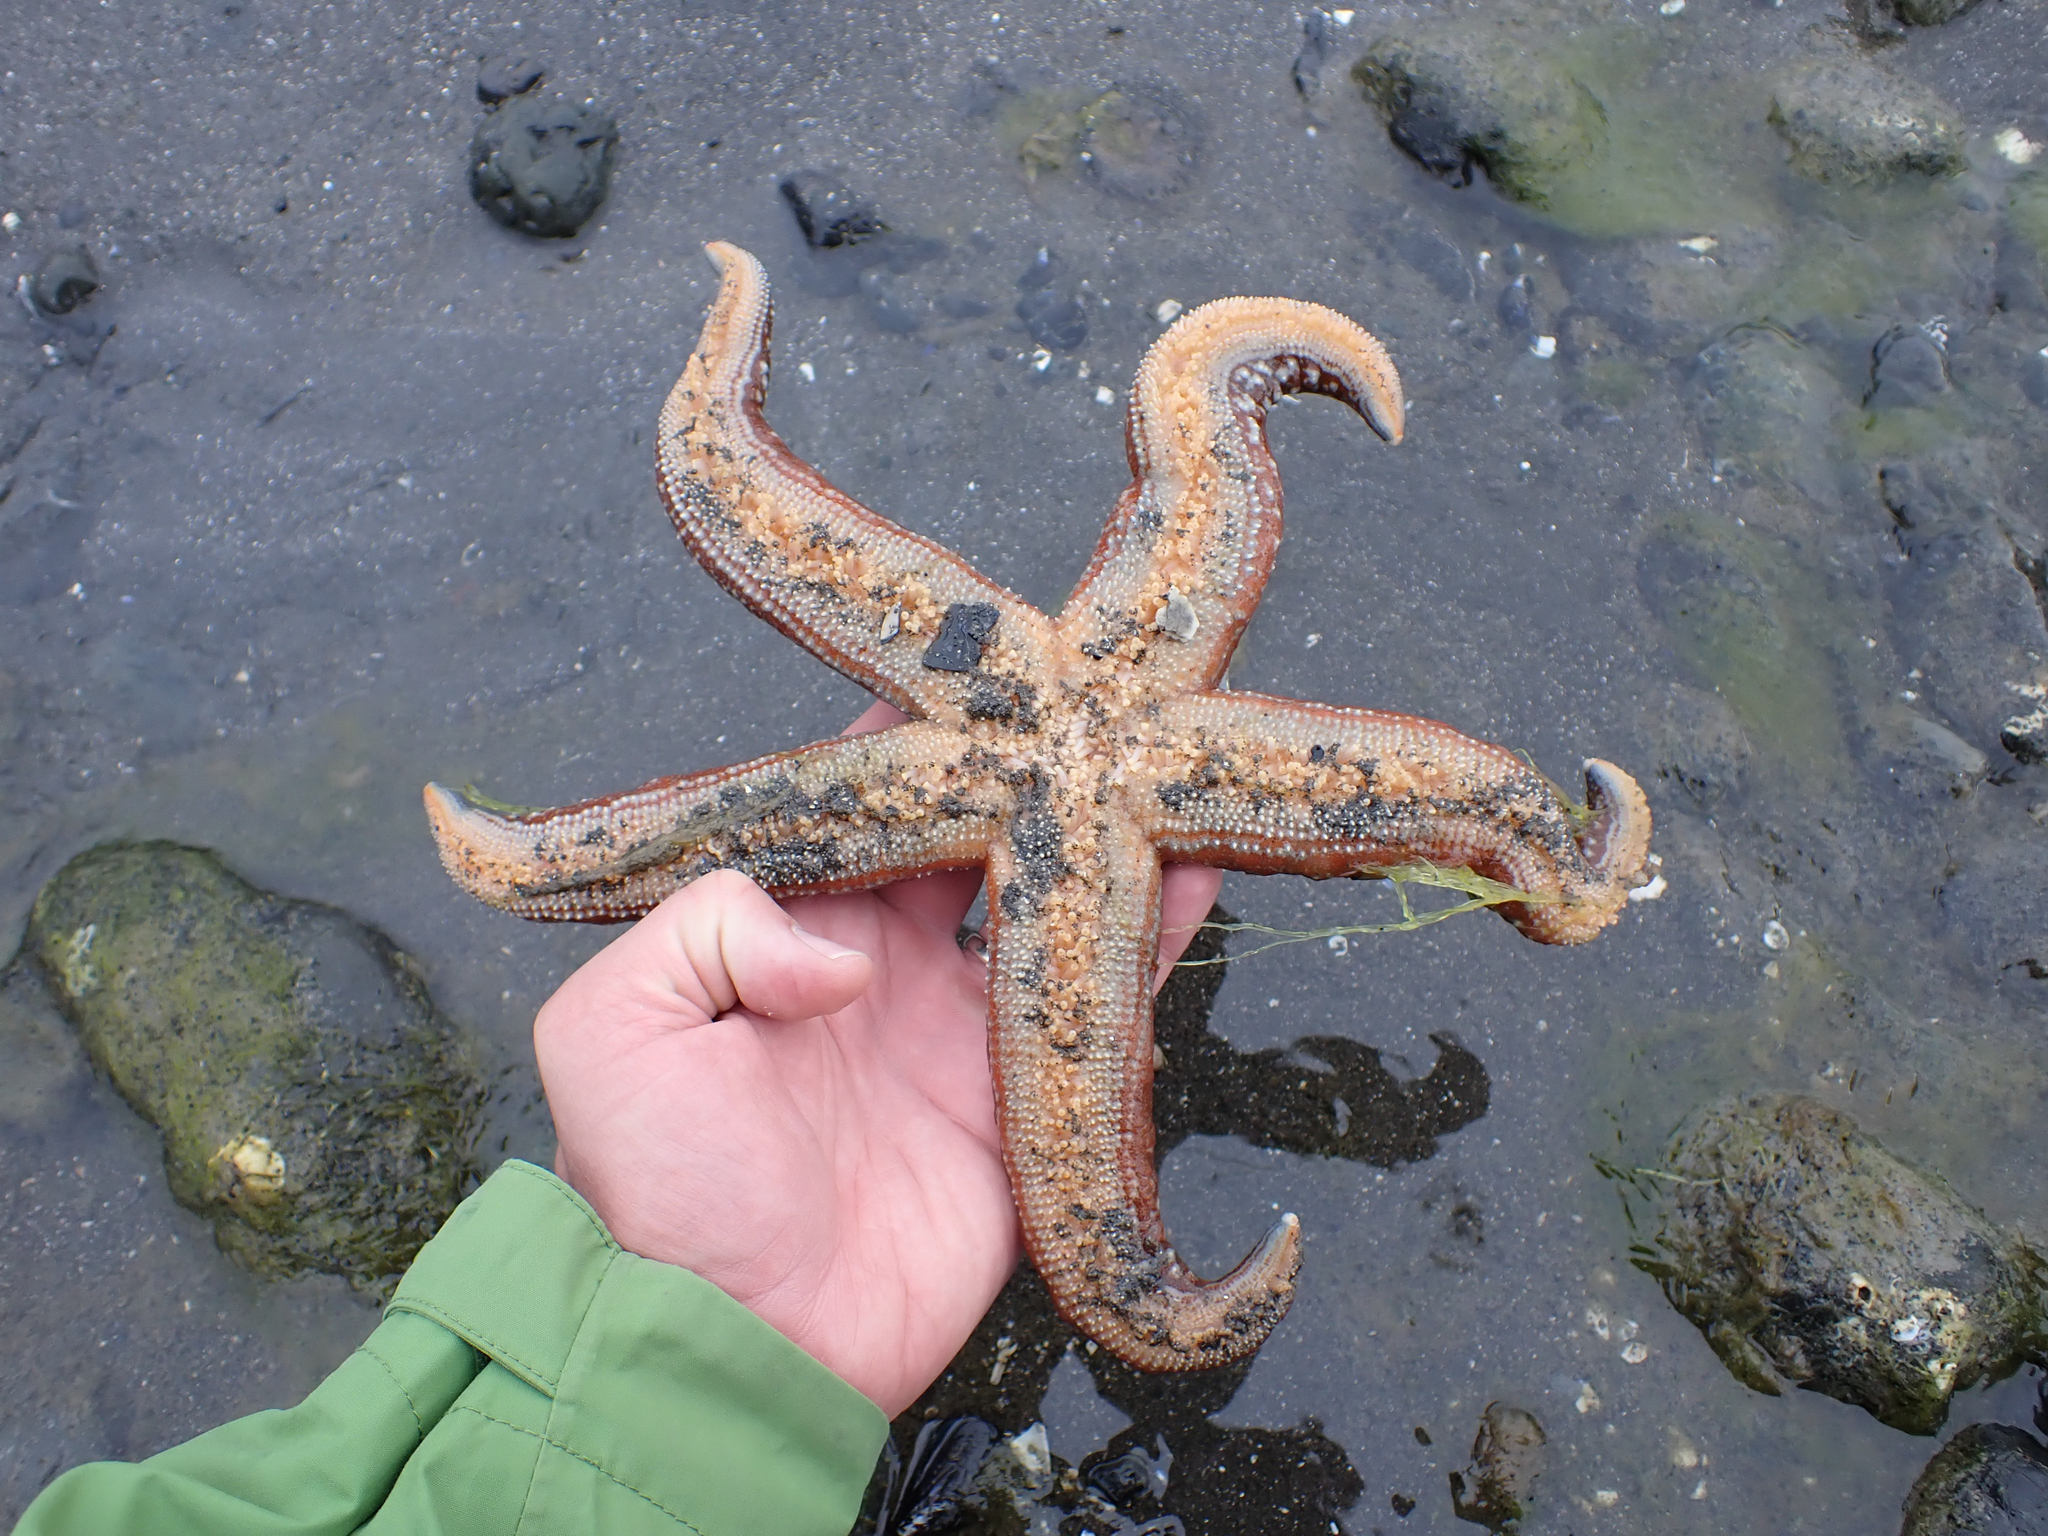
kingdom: Animalia
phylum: Echinodermata
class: Asteroidea
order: Forcipulatida
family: Asteriidae
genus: Evasterias
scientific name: Evasterias troschelii
